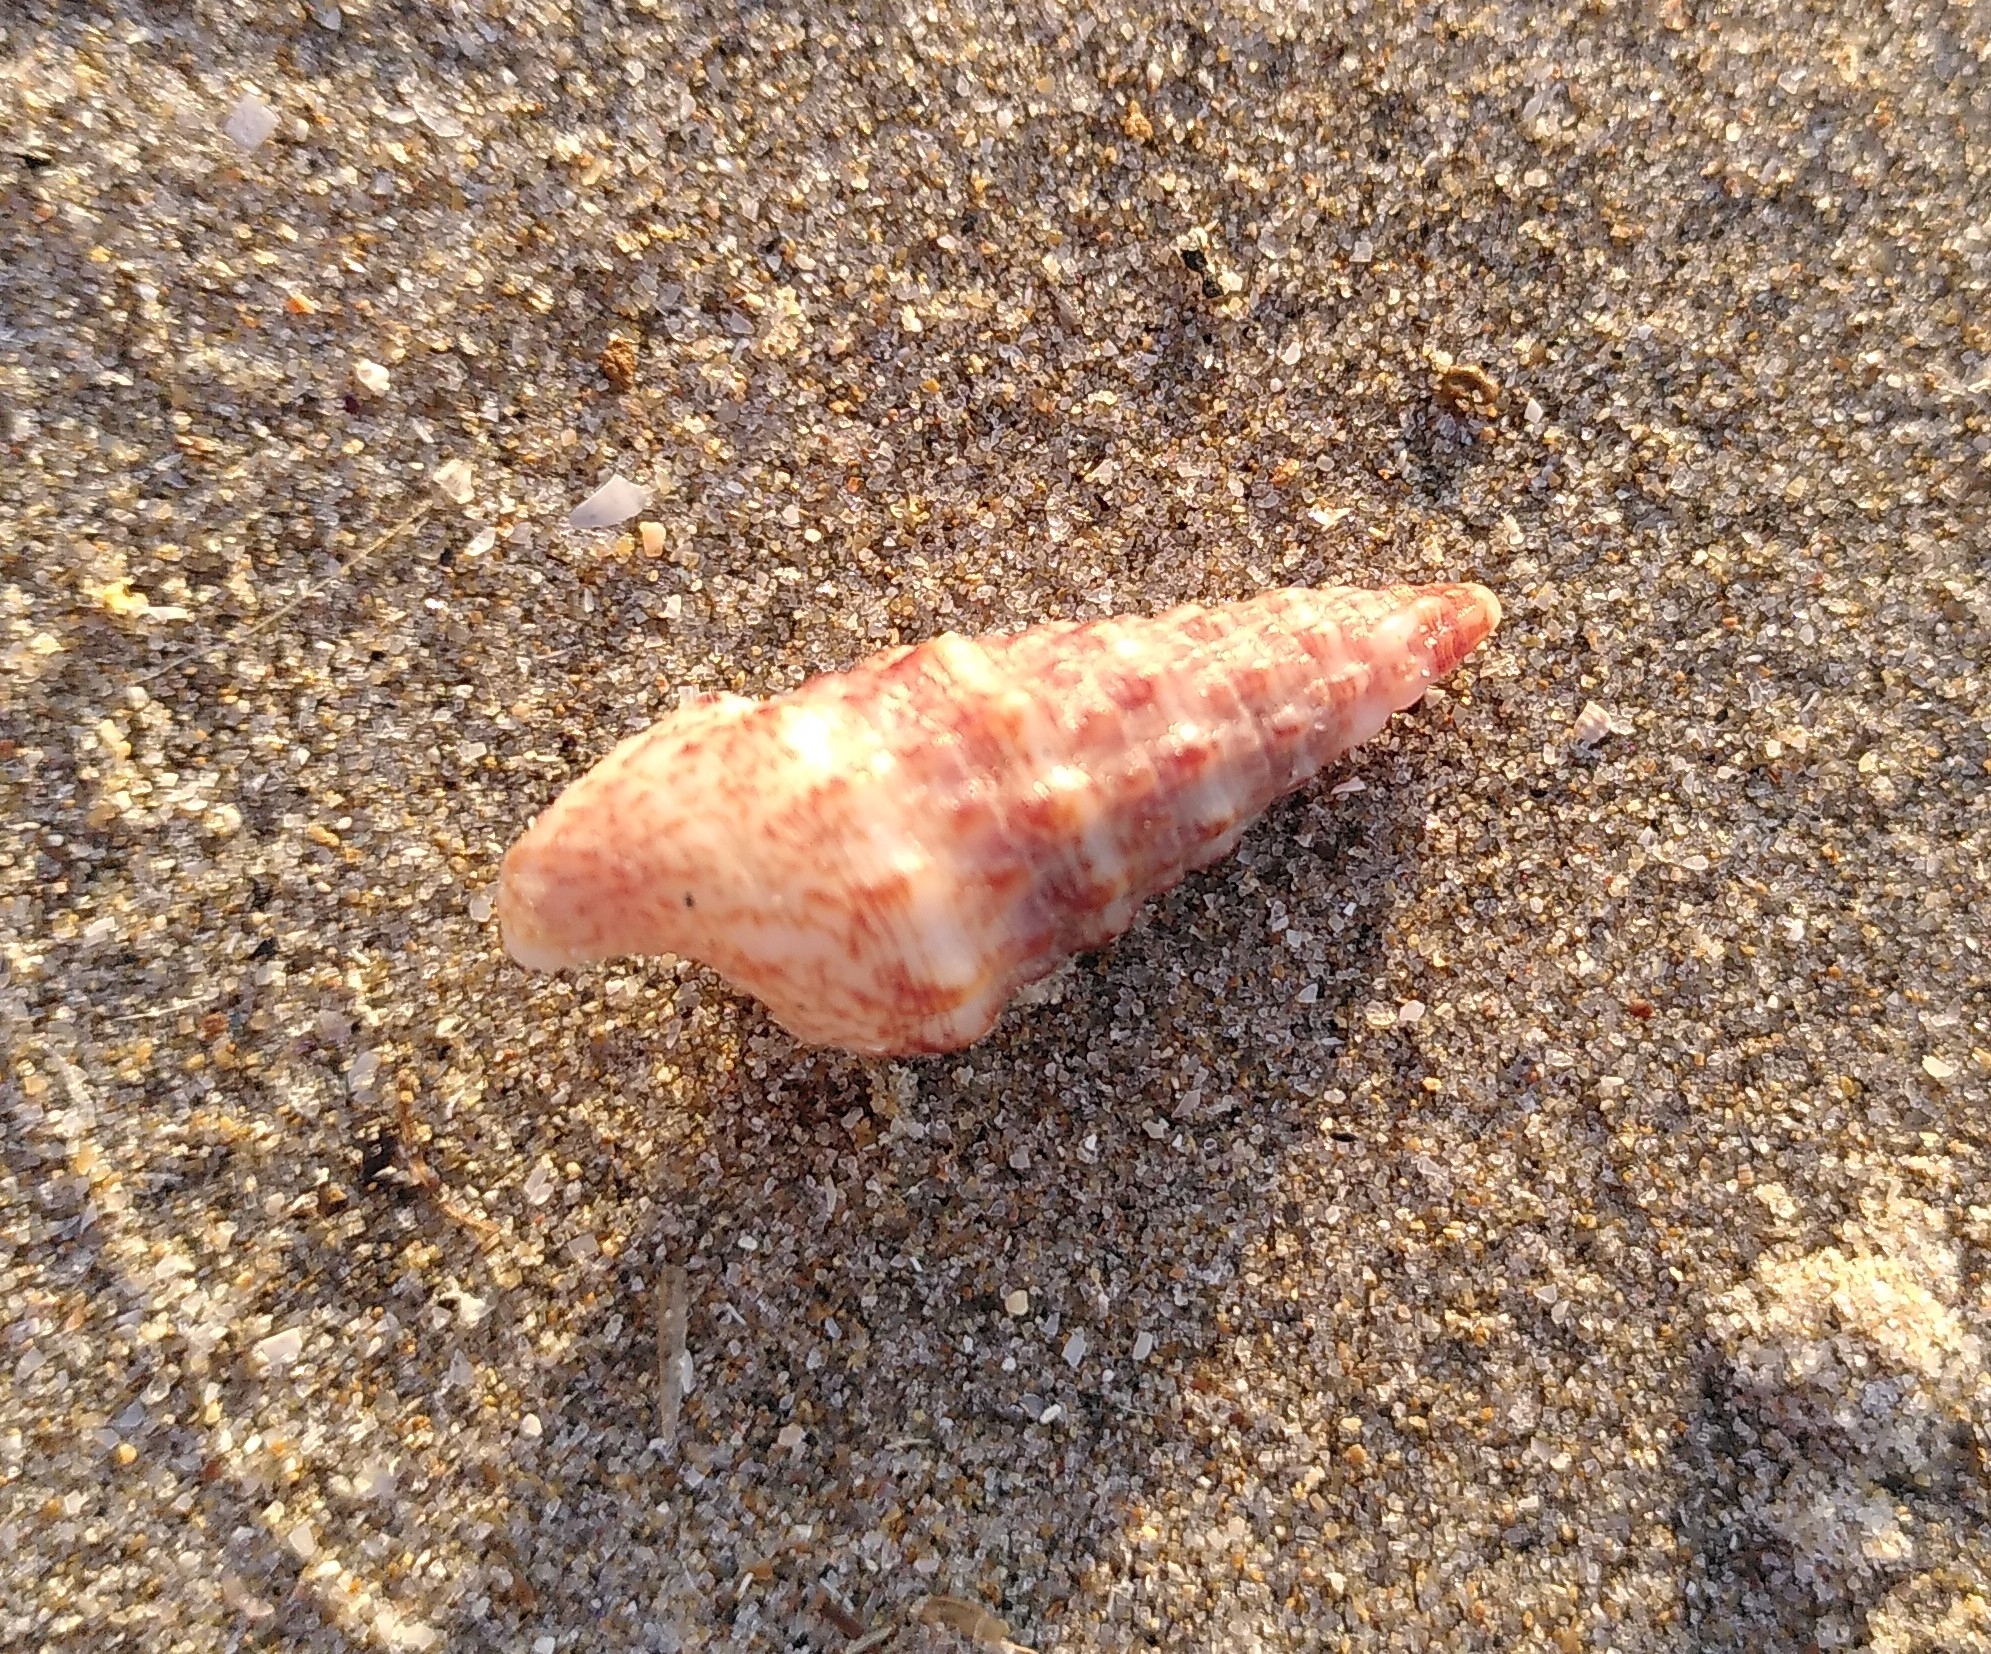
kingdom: Animalia
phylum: Mollusca
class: Gastropoda
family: Cerithiidae
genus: Cerithium
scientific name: Cerithium vulgatum
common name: European cerith
